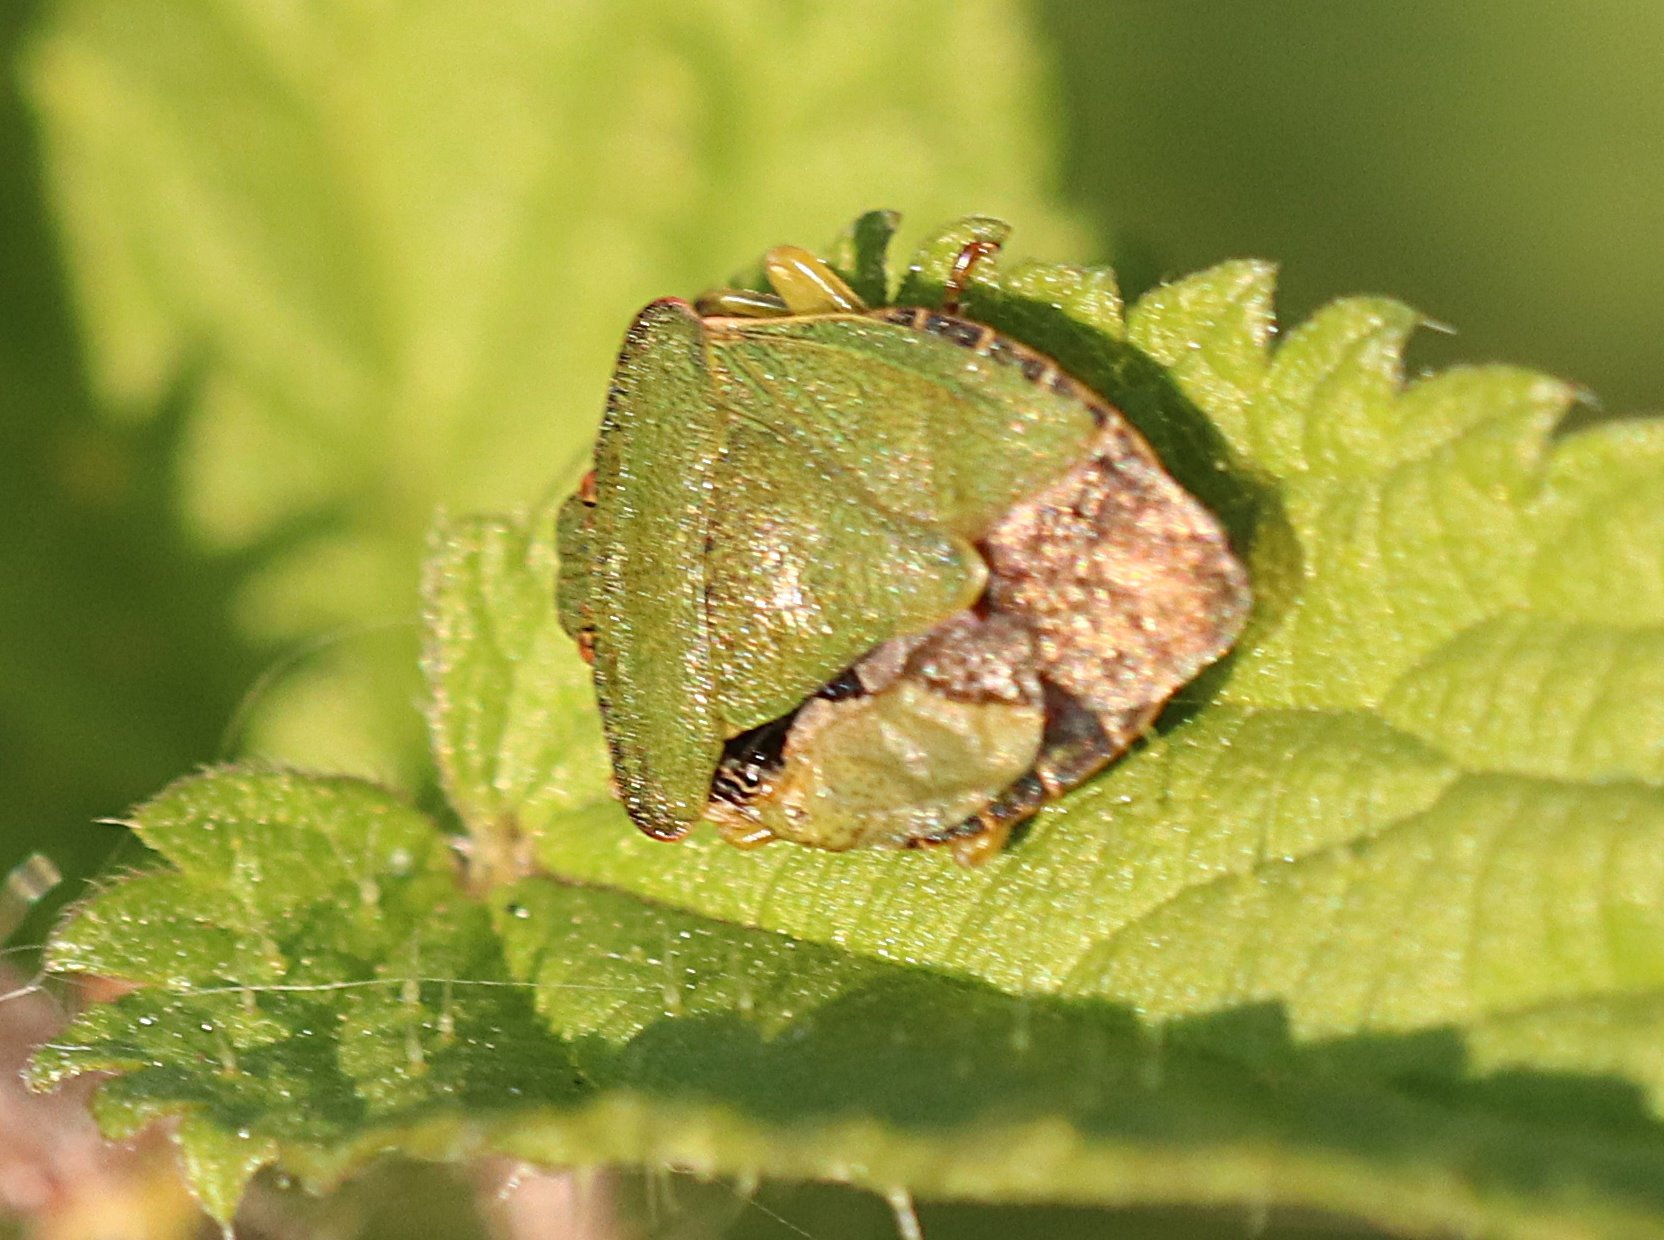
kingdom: Animalia
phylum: Arthropoda
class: Insecta
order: Hemiptera
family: Pentatomidae
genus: Palomena
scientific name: Palomena prasina
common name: Green shieldbug
